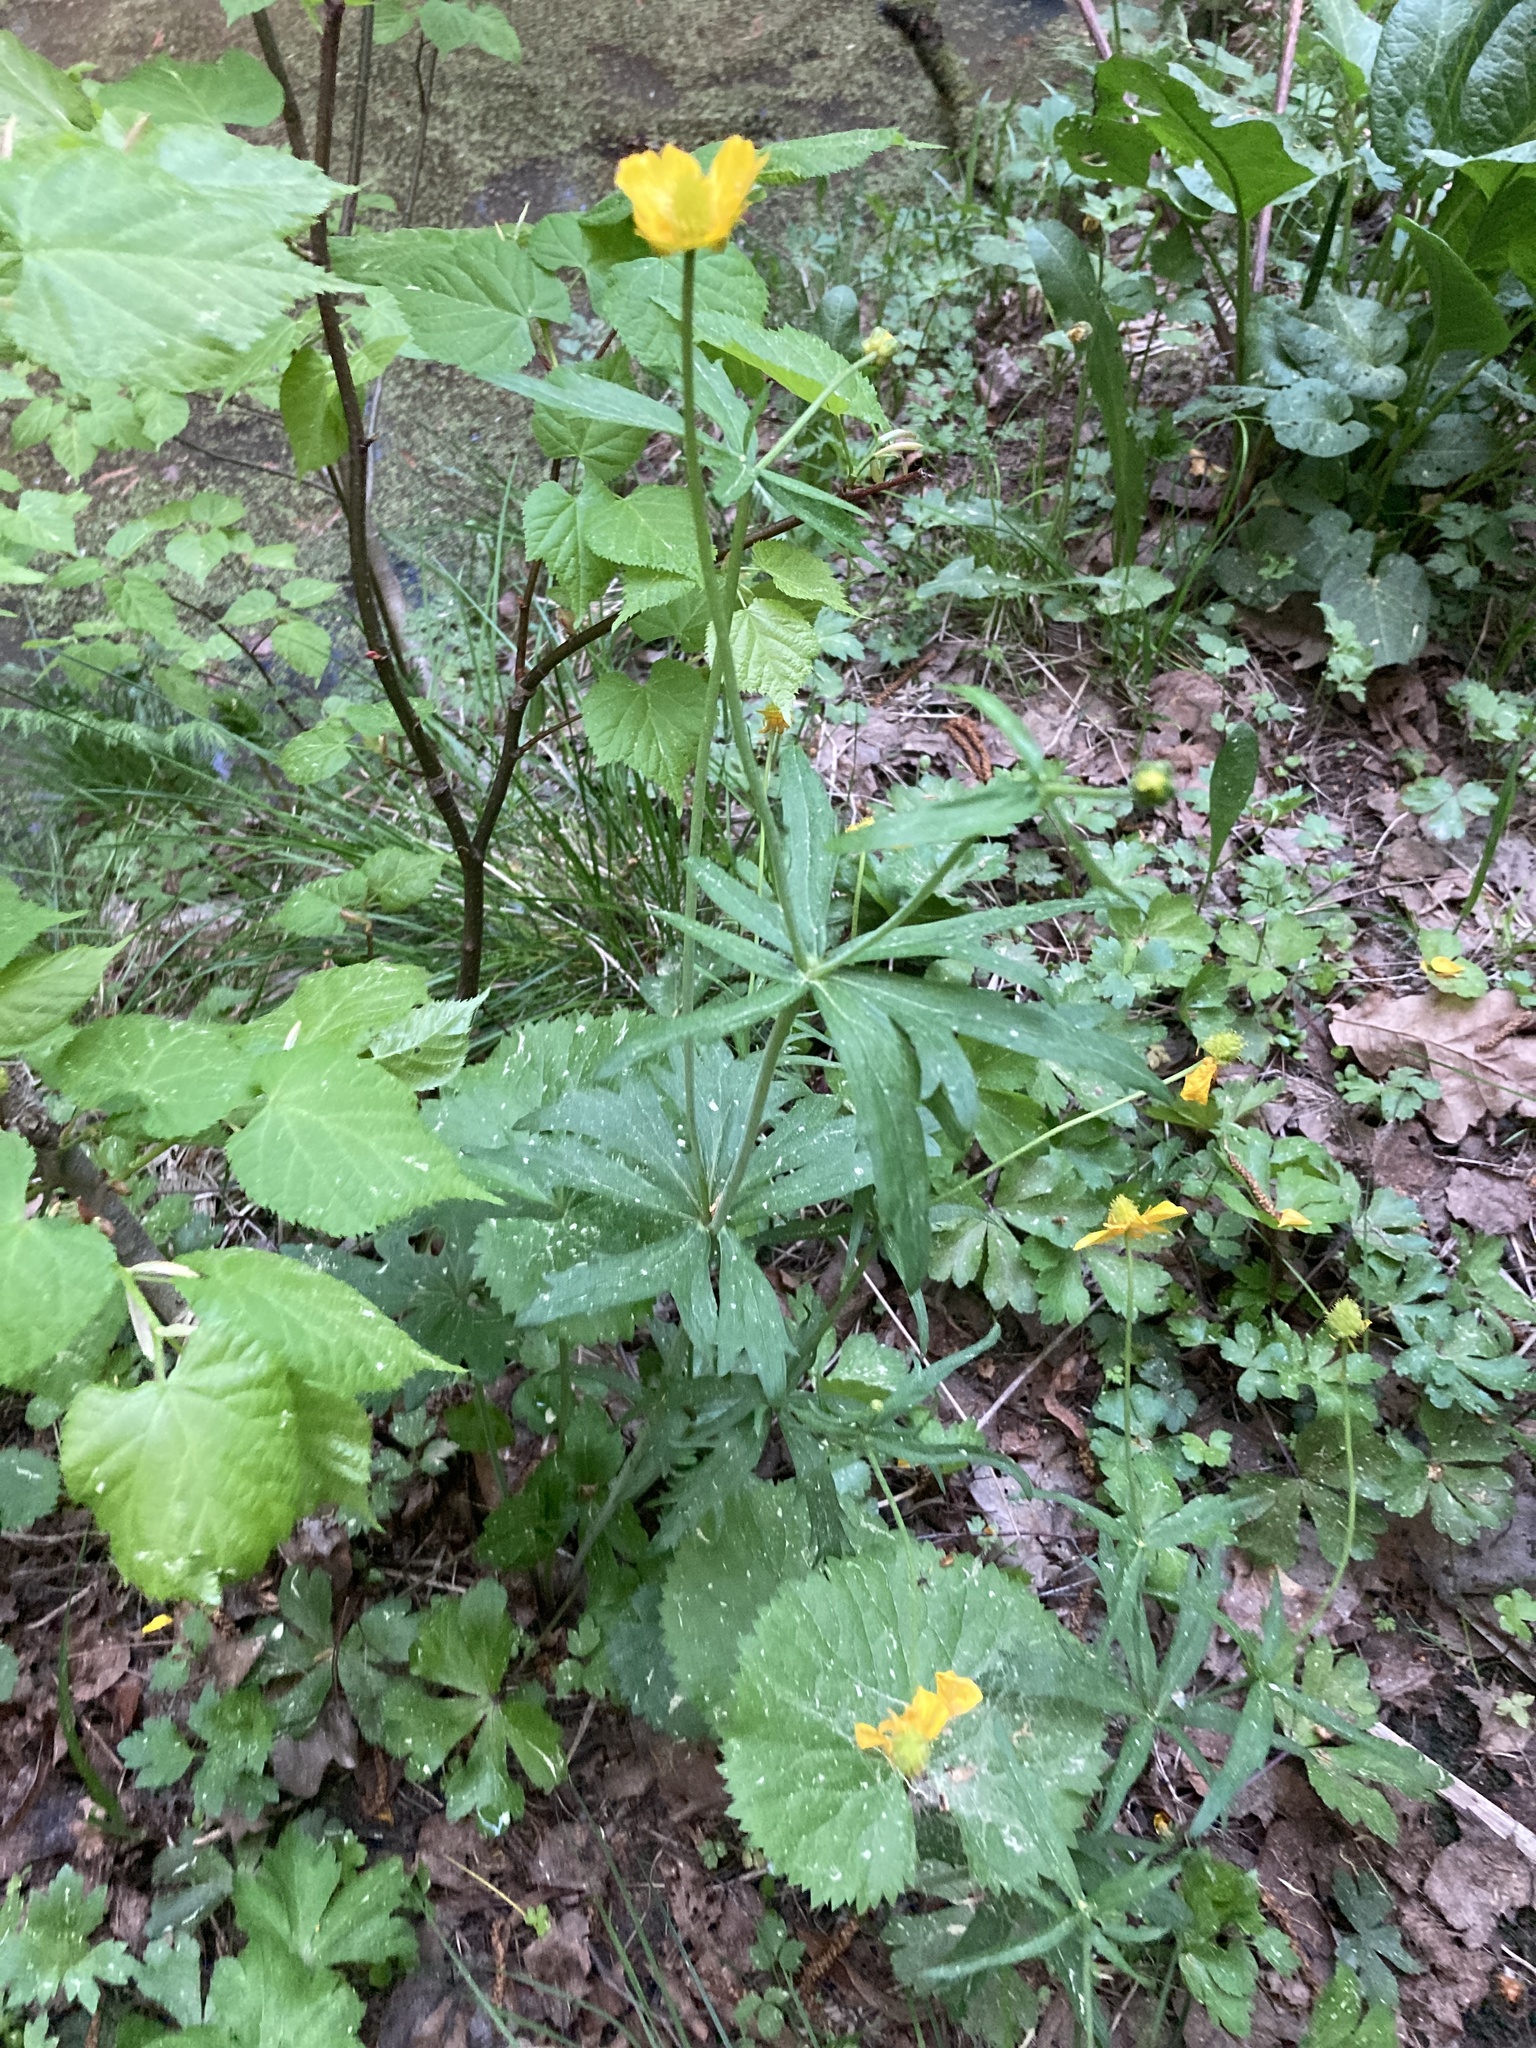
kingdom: Plantae
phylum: Tracheophyta
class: Magnoliopsida
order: Ranunculales
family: Ranunculaceae
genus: Ranunculus
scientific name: Ranunculus cassubicus
